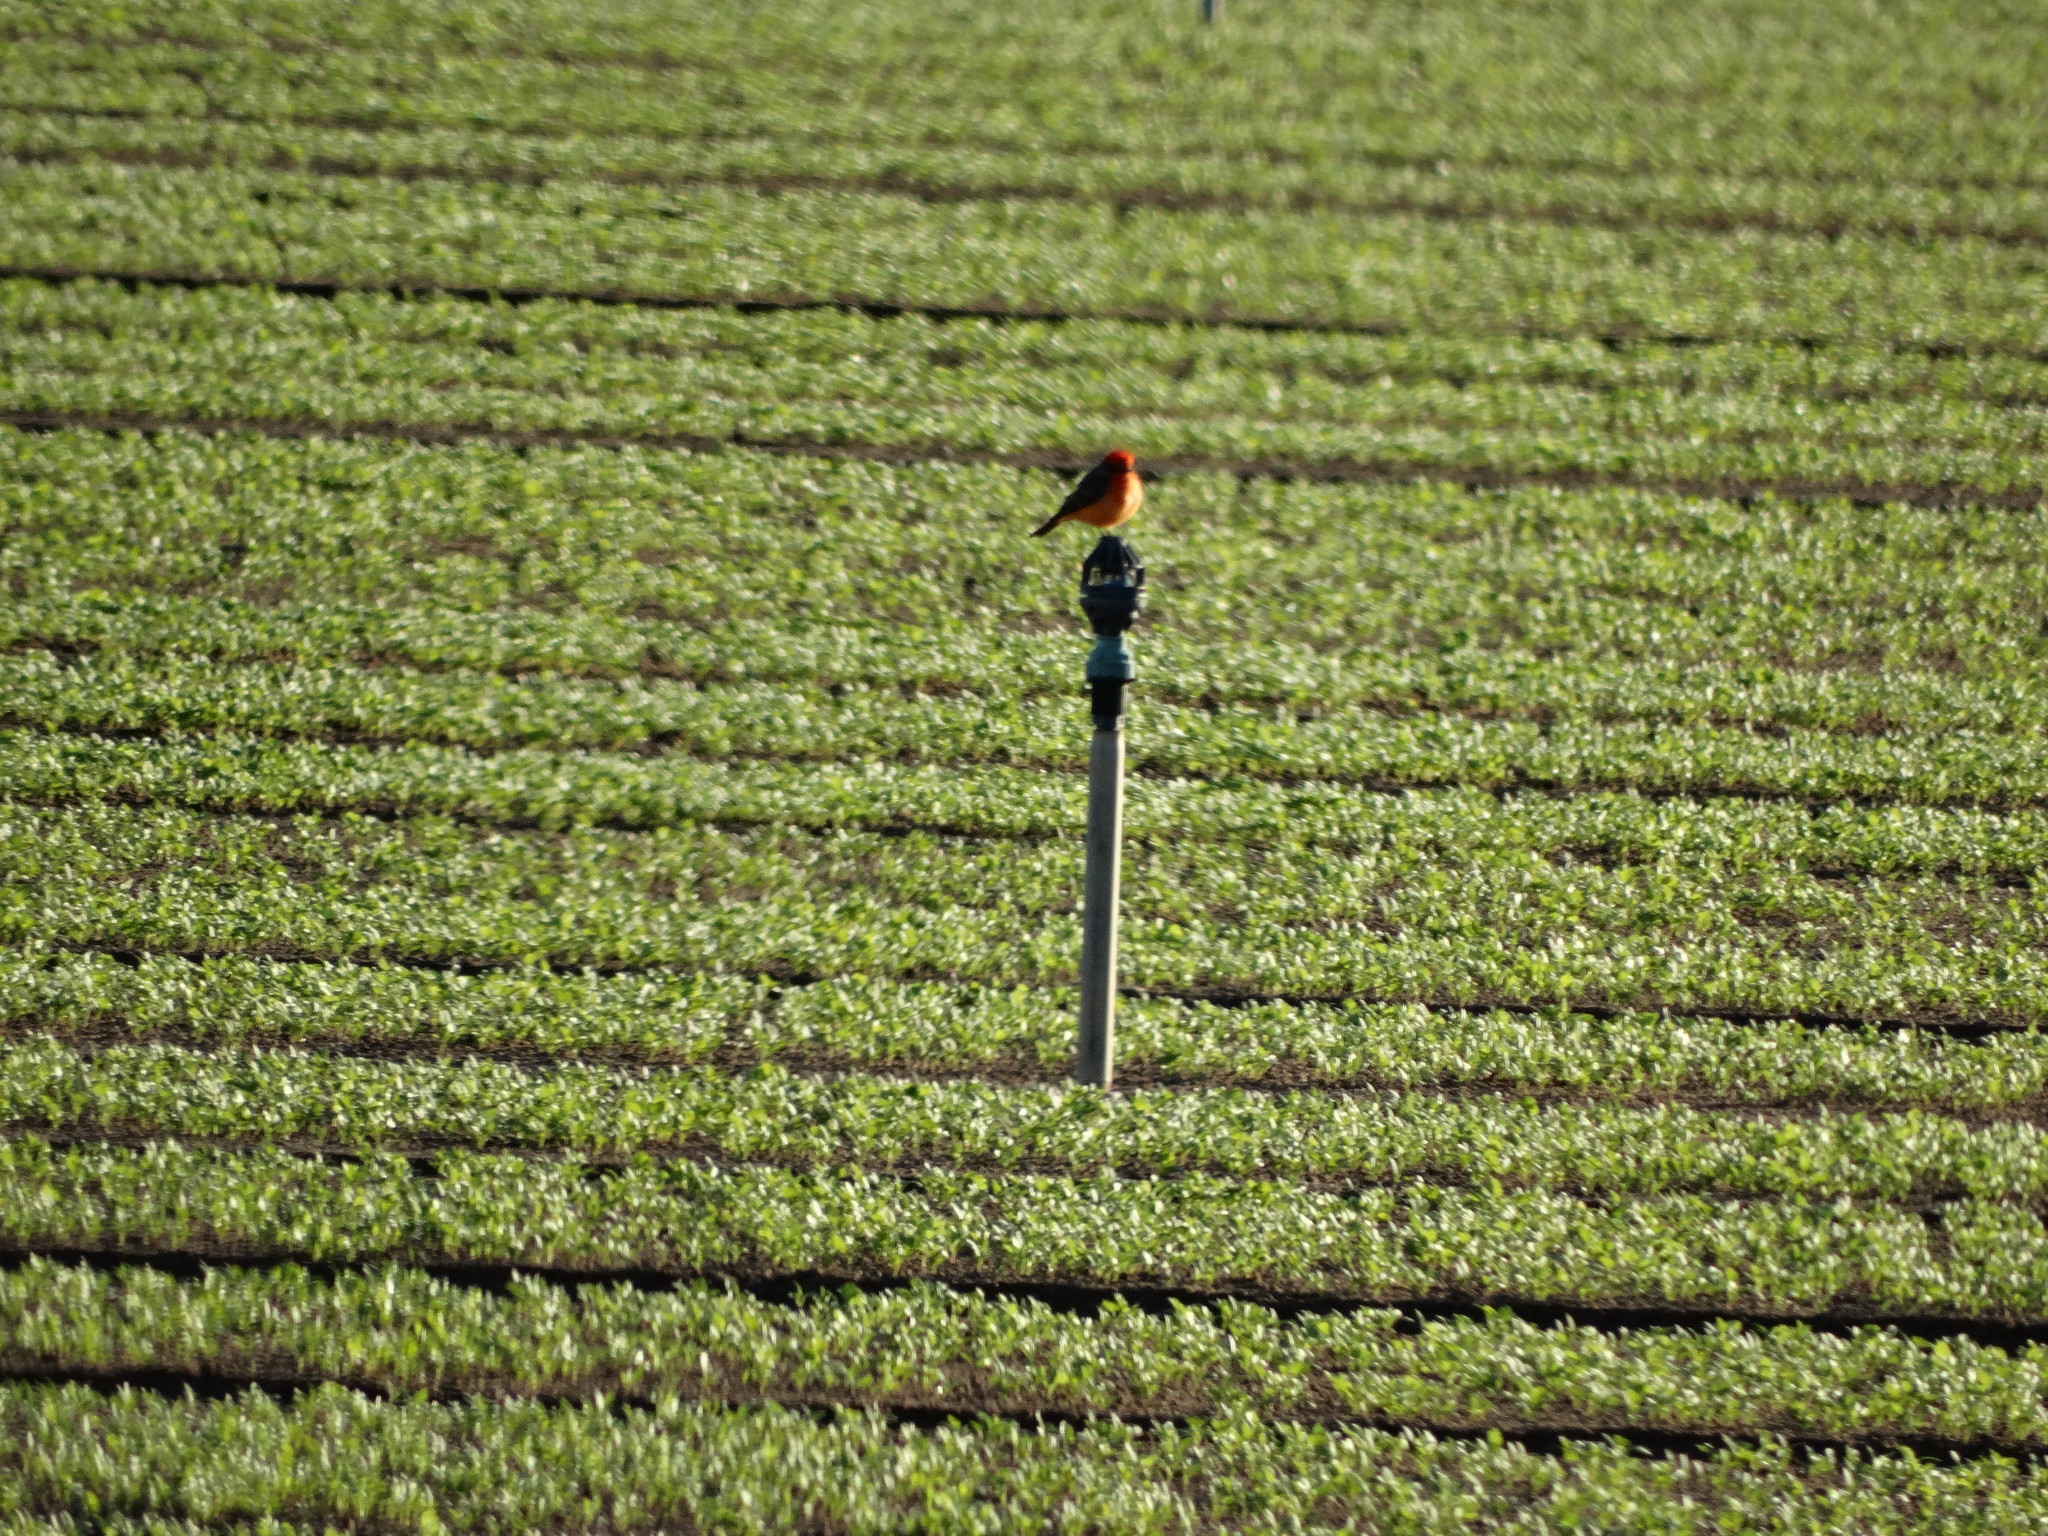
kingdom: Animalia
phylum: Chordata
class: Aves
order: Passeriformes
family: Tyrannidae
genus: Pyrocephalus
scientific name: Pyrocephalus rubinus
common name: Vermilion flycatcher
